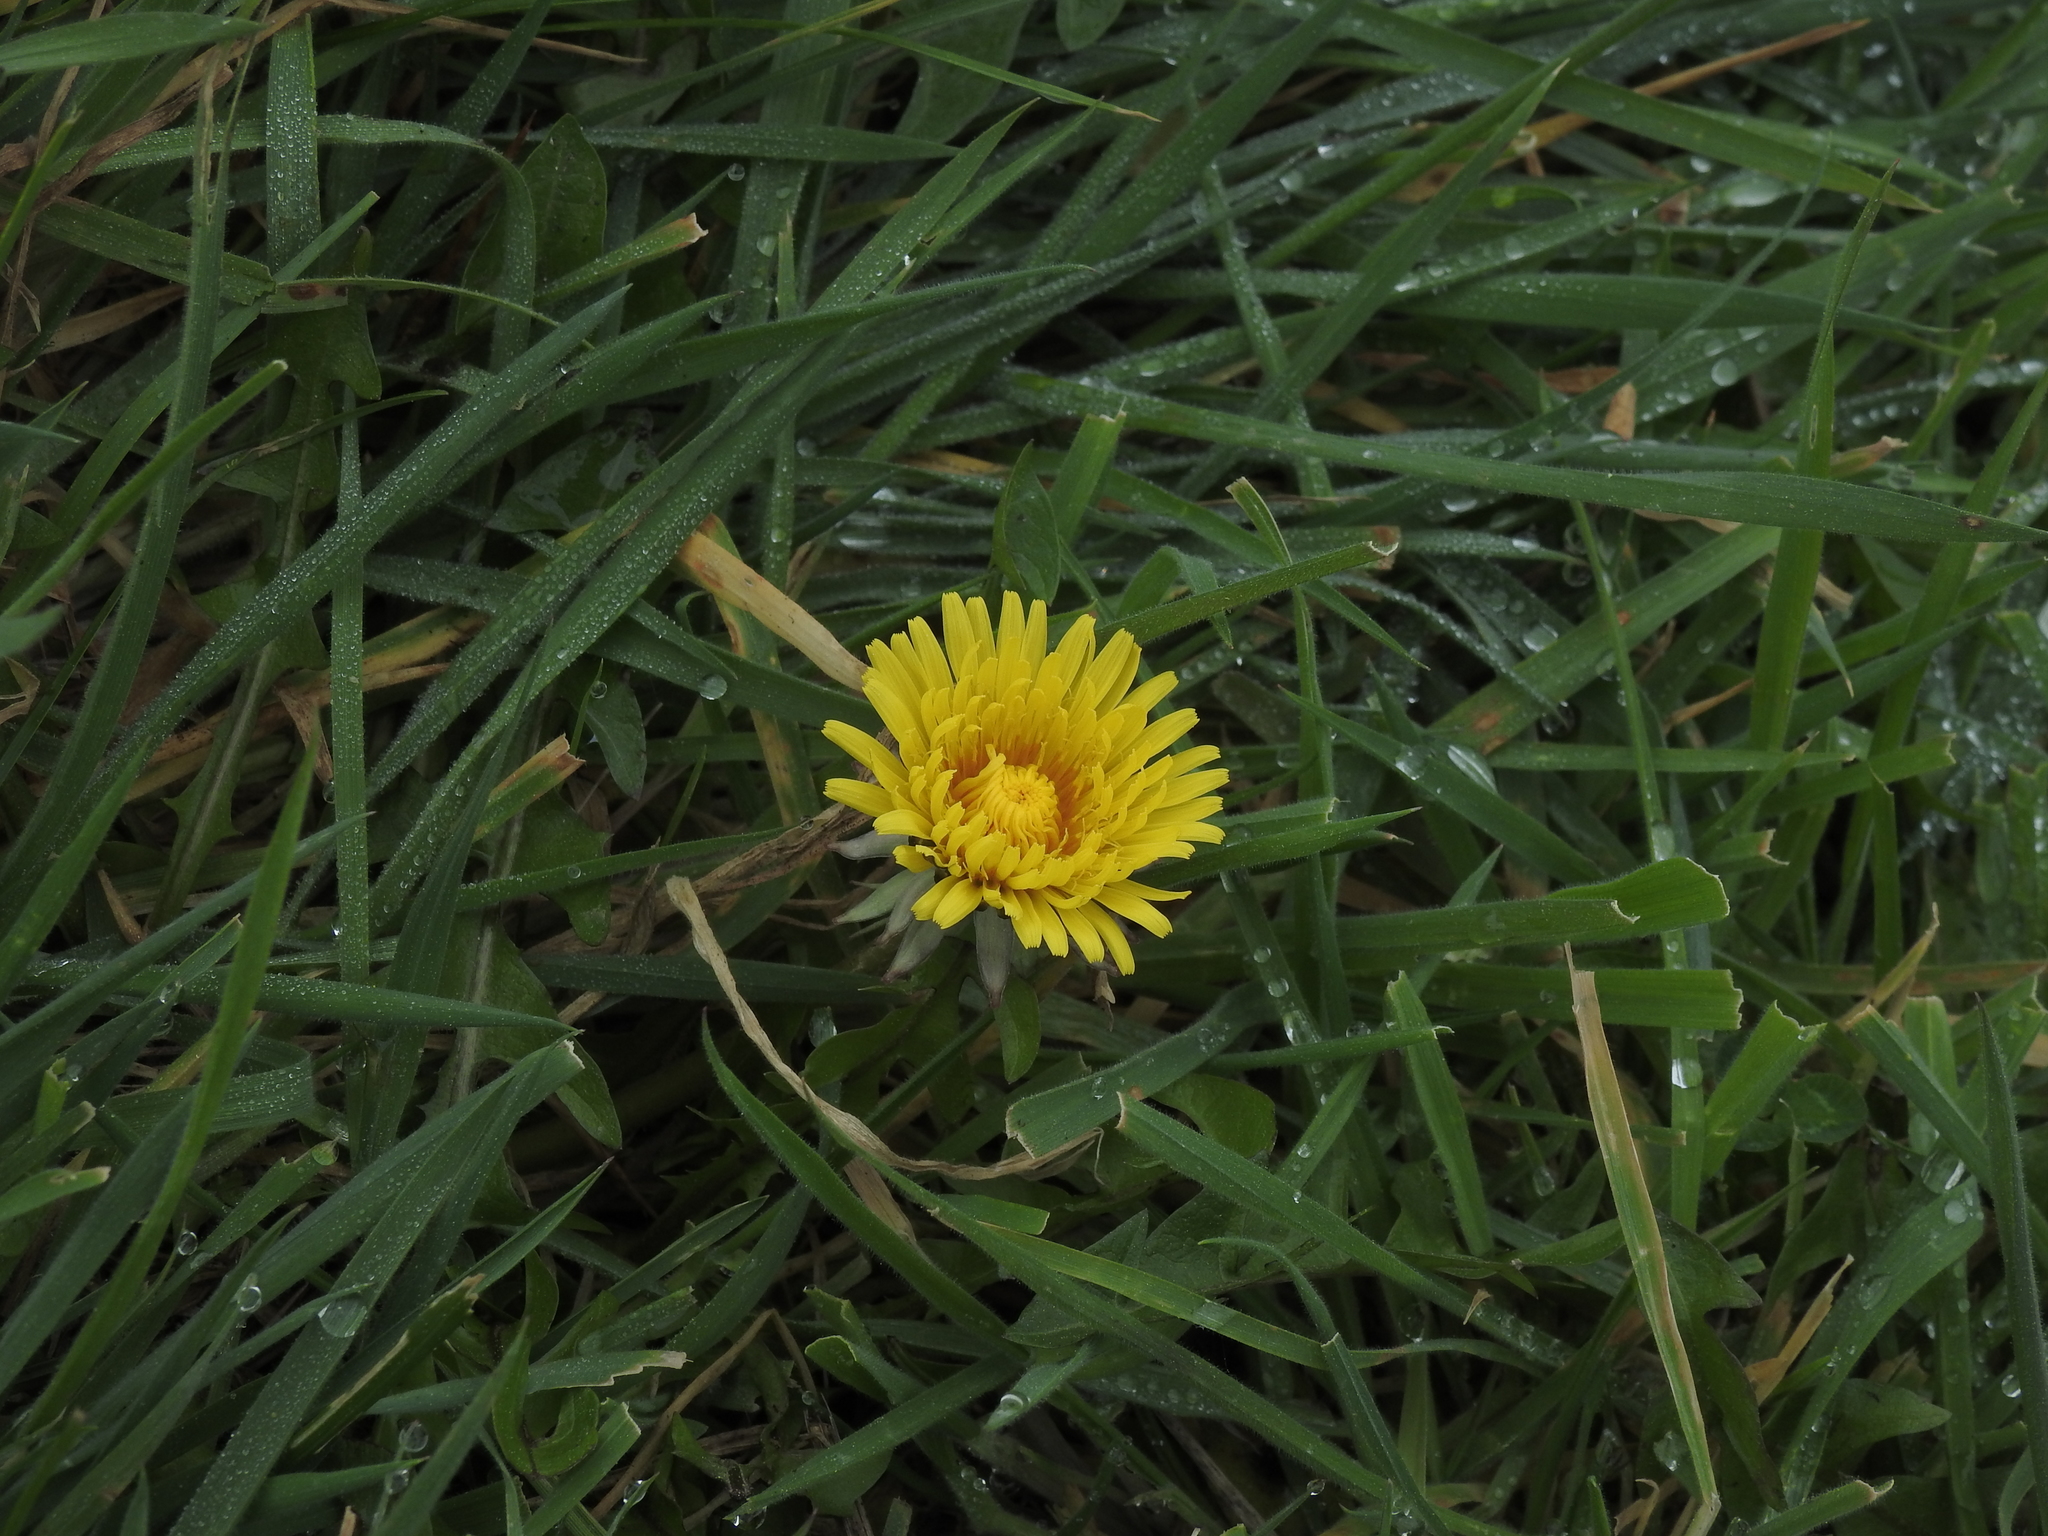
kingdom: Plantae
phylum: Tracheophyta
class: Magnoliopsida
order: Asterales
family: Asteraceae
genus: Taraxacum
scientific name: Taraxacum officinale
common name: Common dandelion
